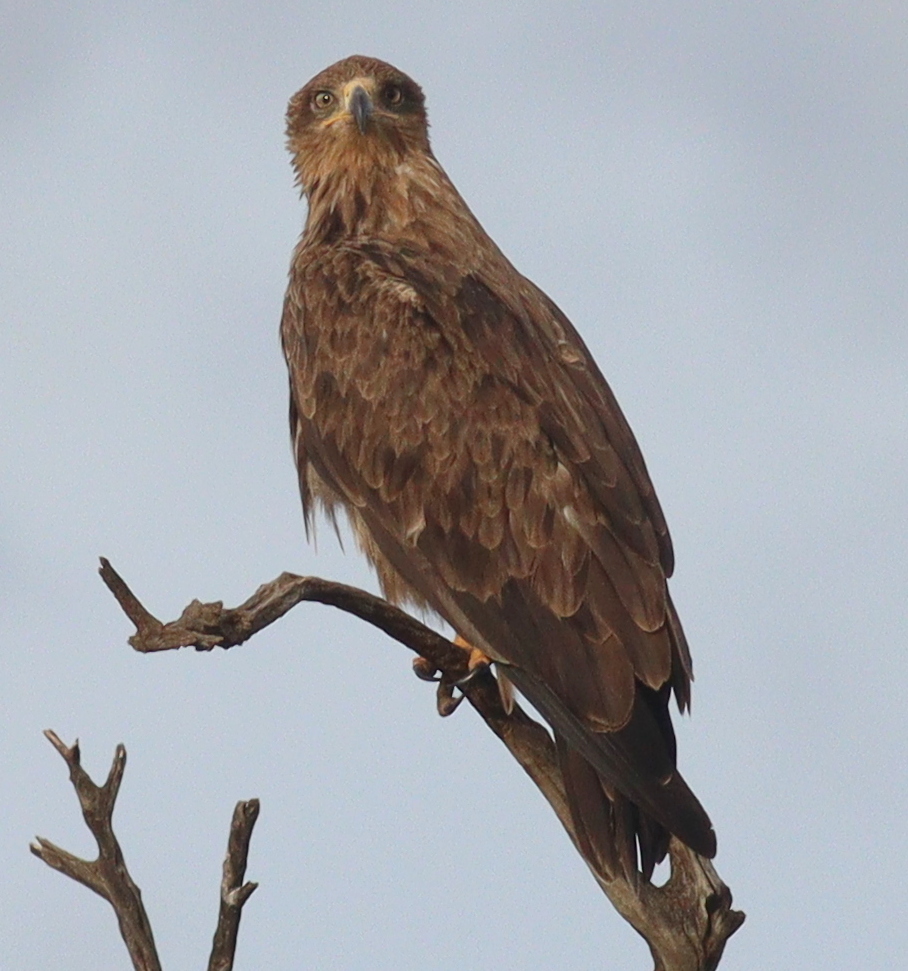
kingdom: Animalia
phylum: Chordata
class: Aves
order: Accipitriformes
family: Accipitridae
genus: Aquila
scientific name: Aquila rapax
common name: Tawny eagle
